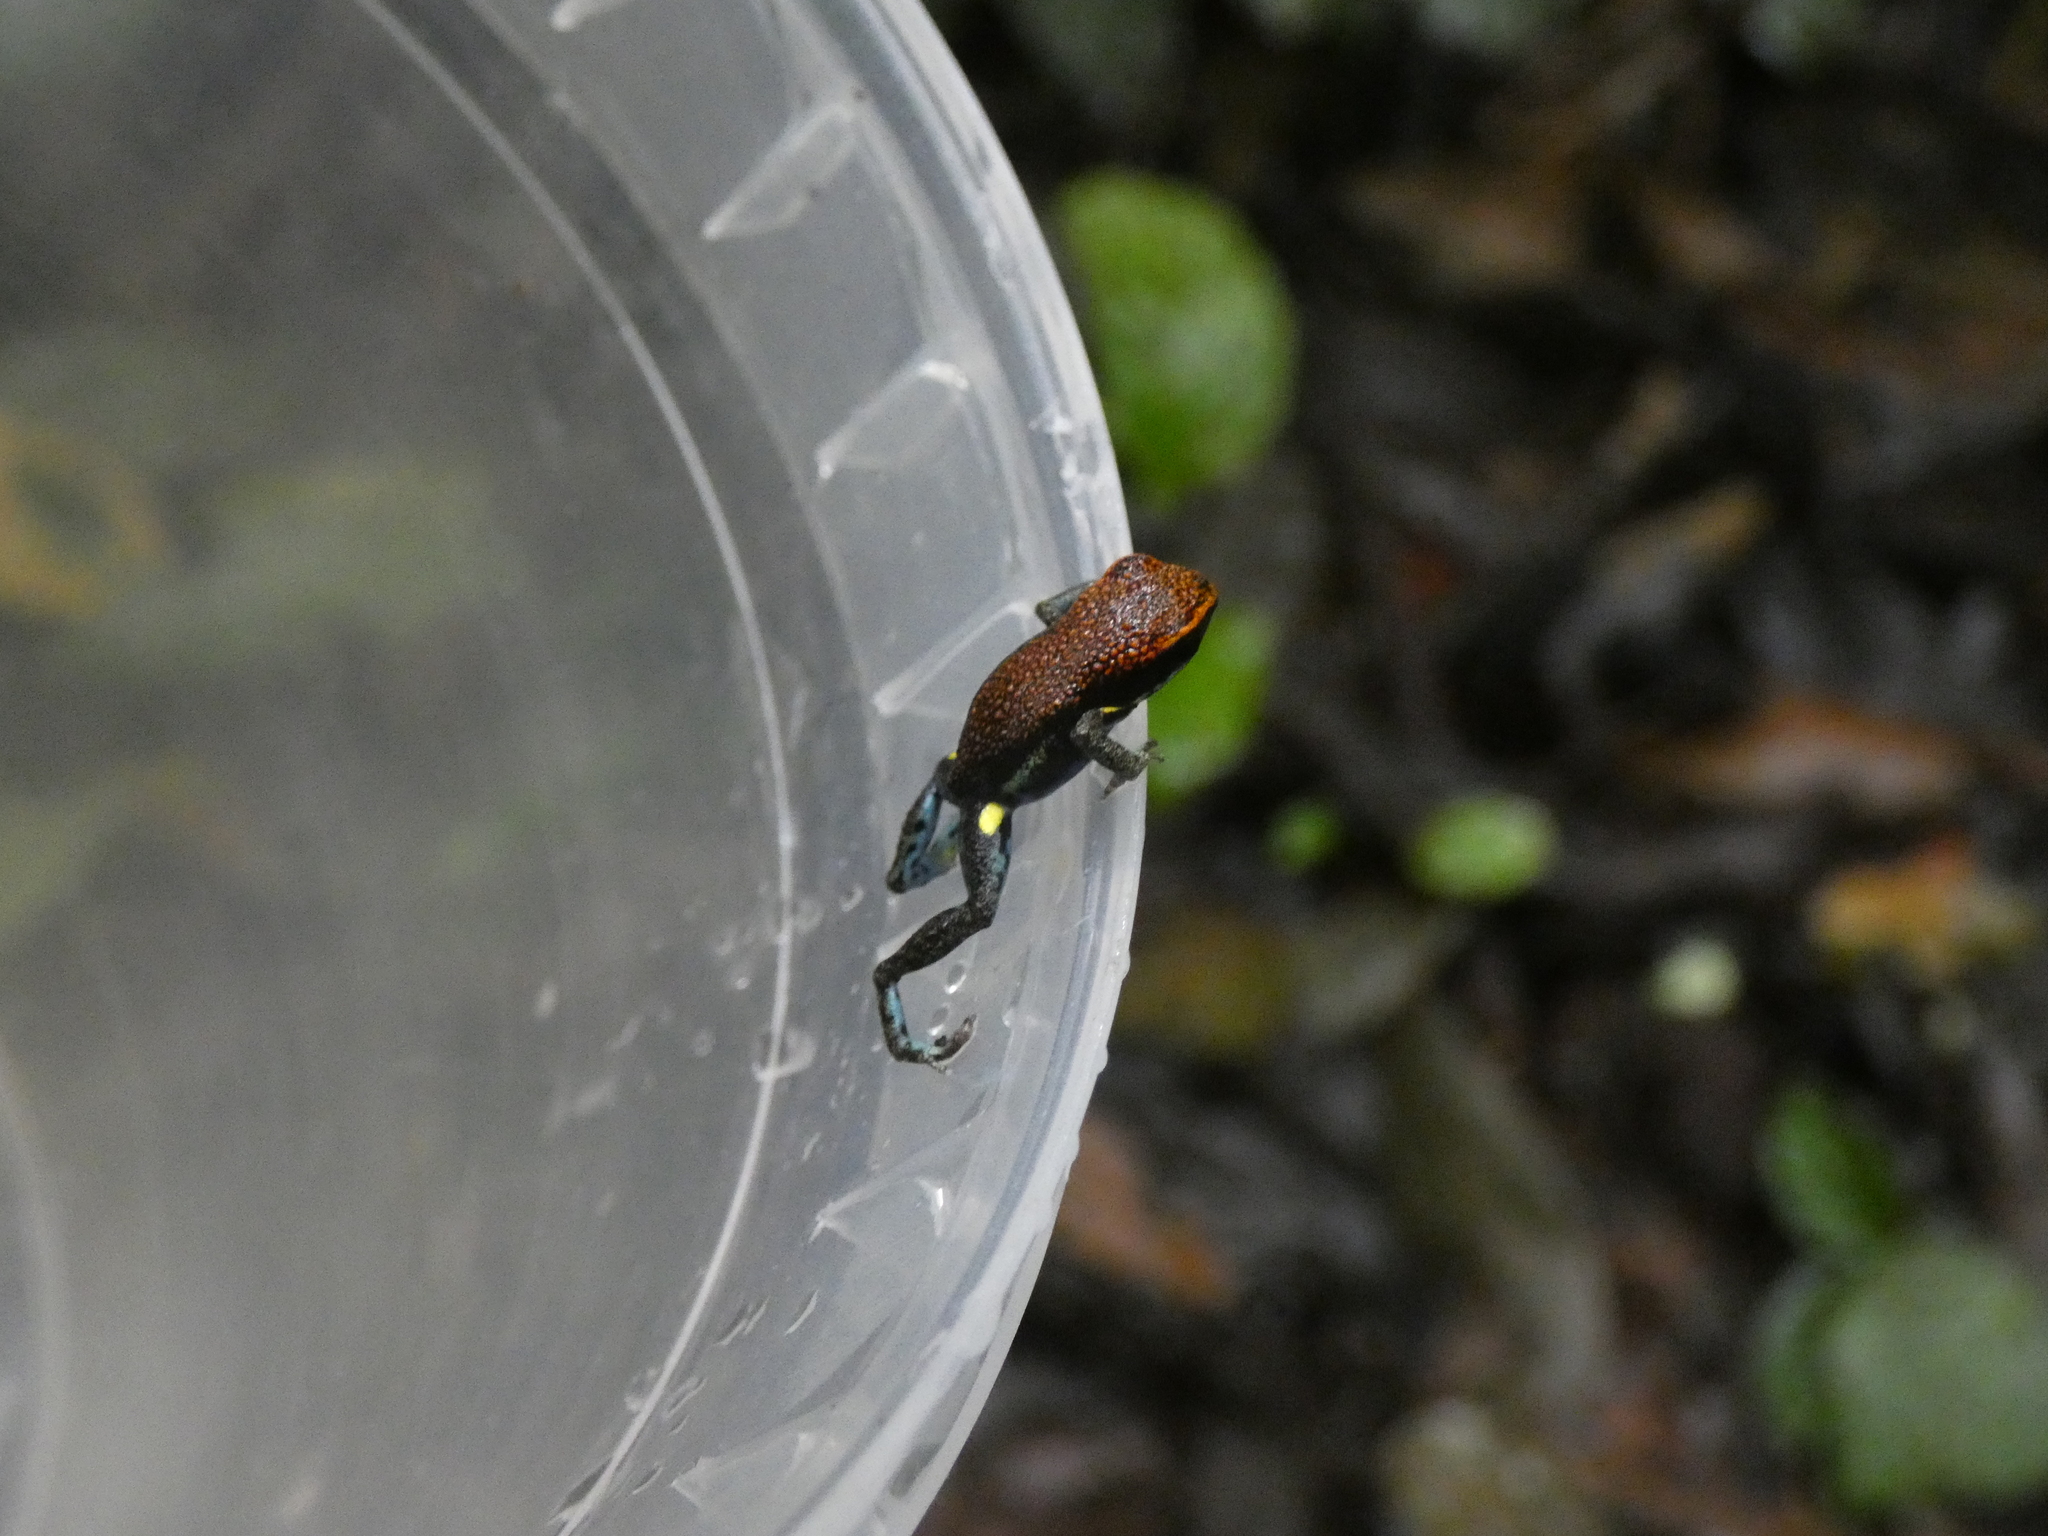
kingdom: Animalia
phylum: Chordata
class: Amphibia
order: Anura
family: Dendrobatidae
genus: Ameerega
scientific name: Ameerega bilinguis
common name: Ecuadorean poison frog
